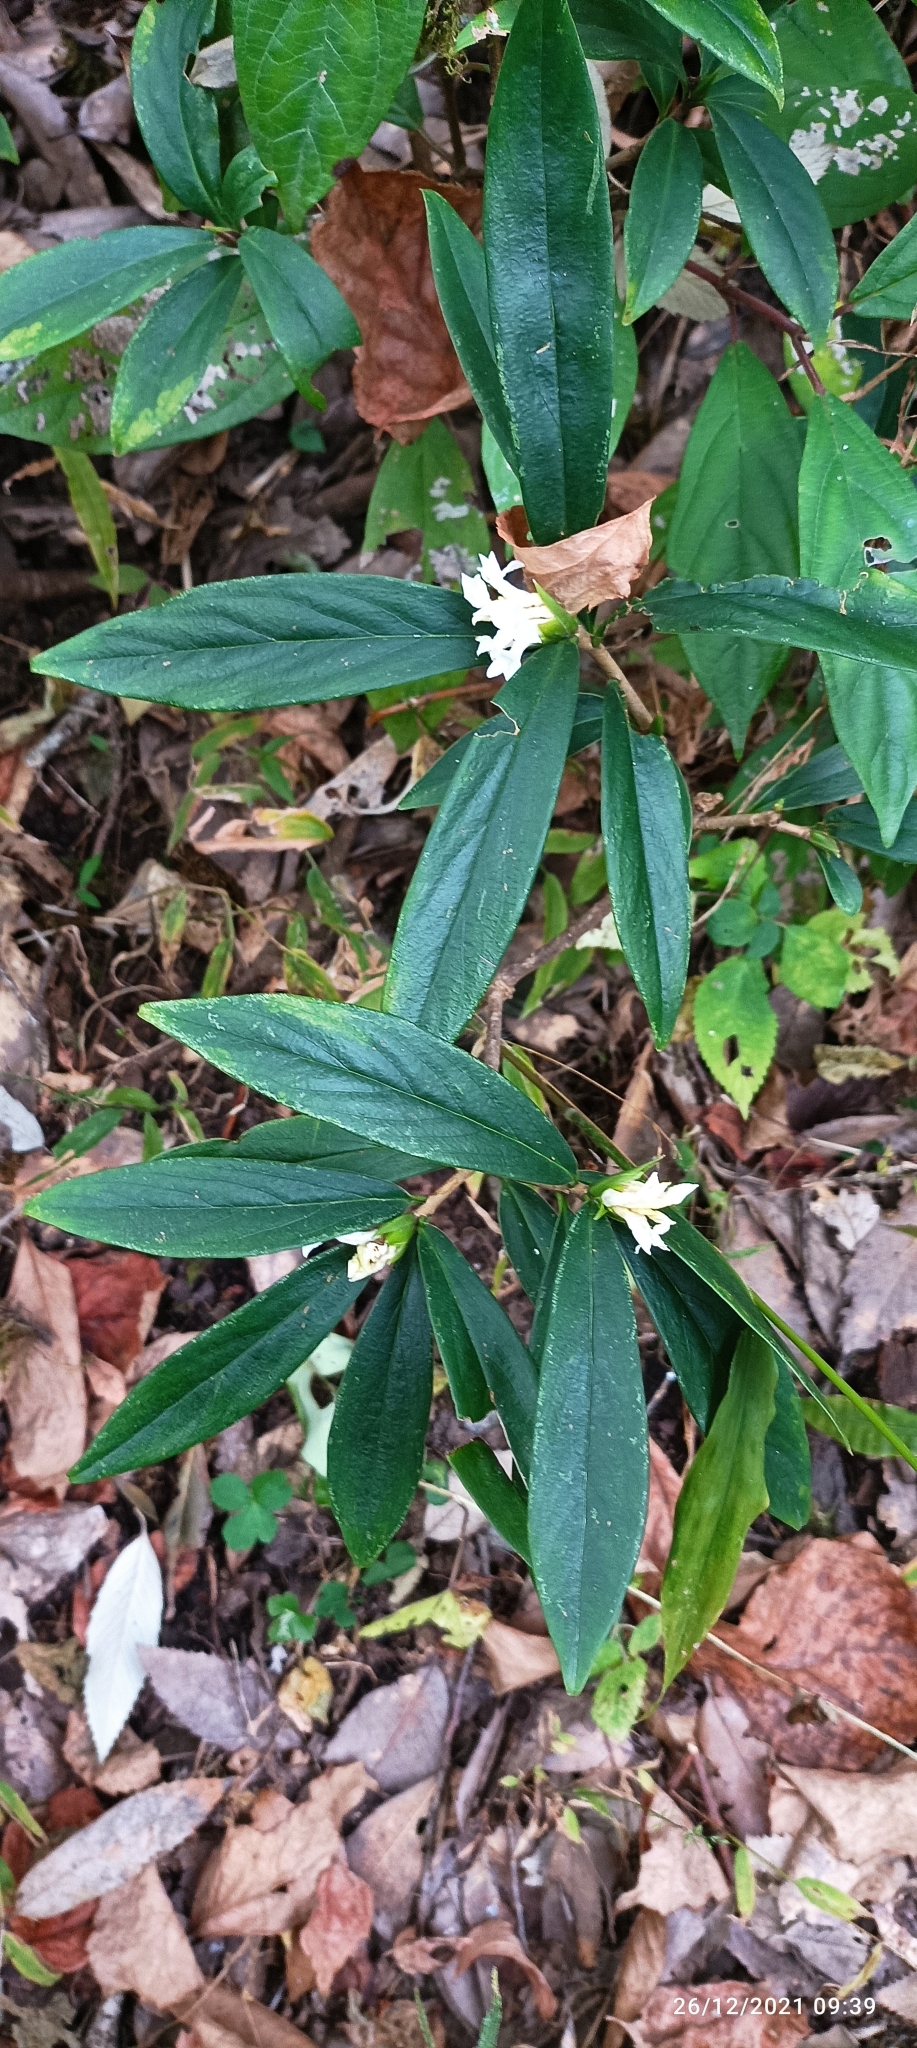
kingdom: Plantae
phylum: Tracheophyta
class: Magnoliopsida
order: Malvales
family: Thymelaeaceae
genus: Daphne
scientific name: Daphne papyracea
